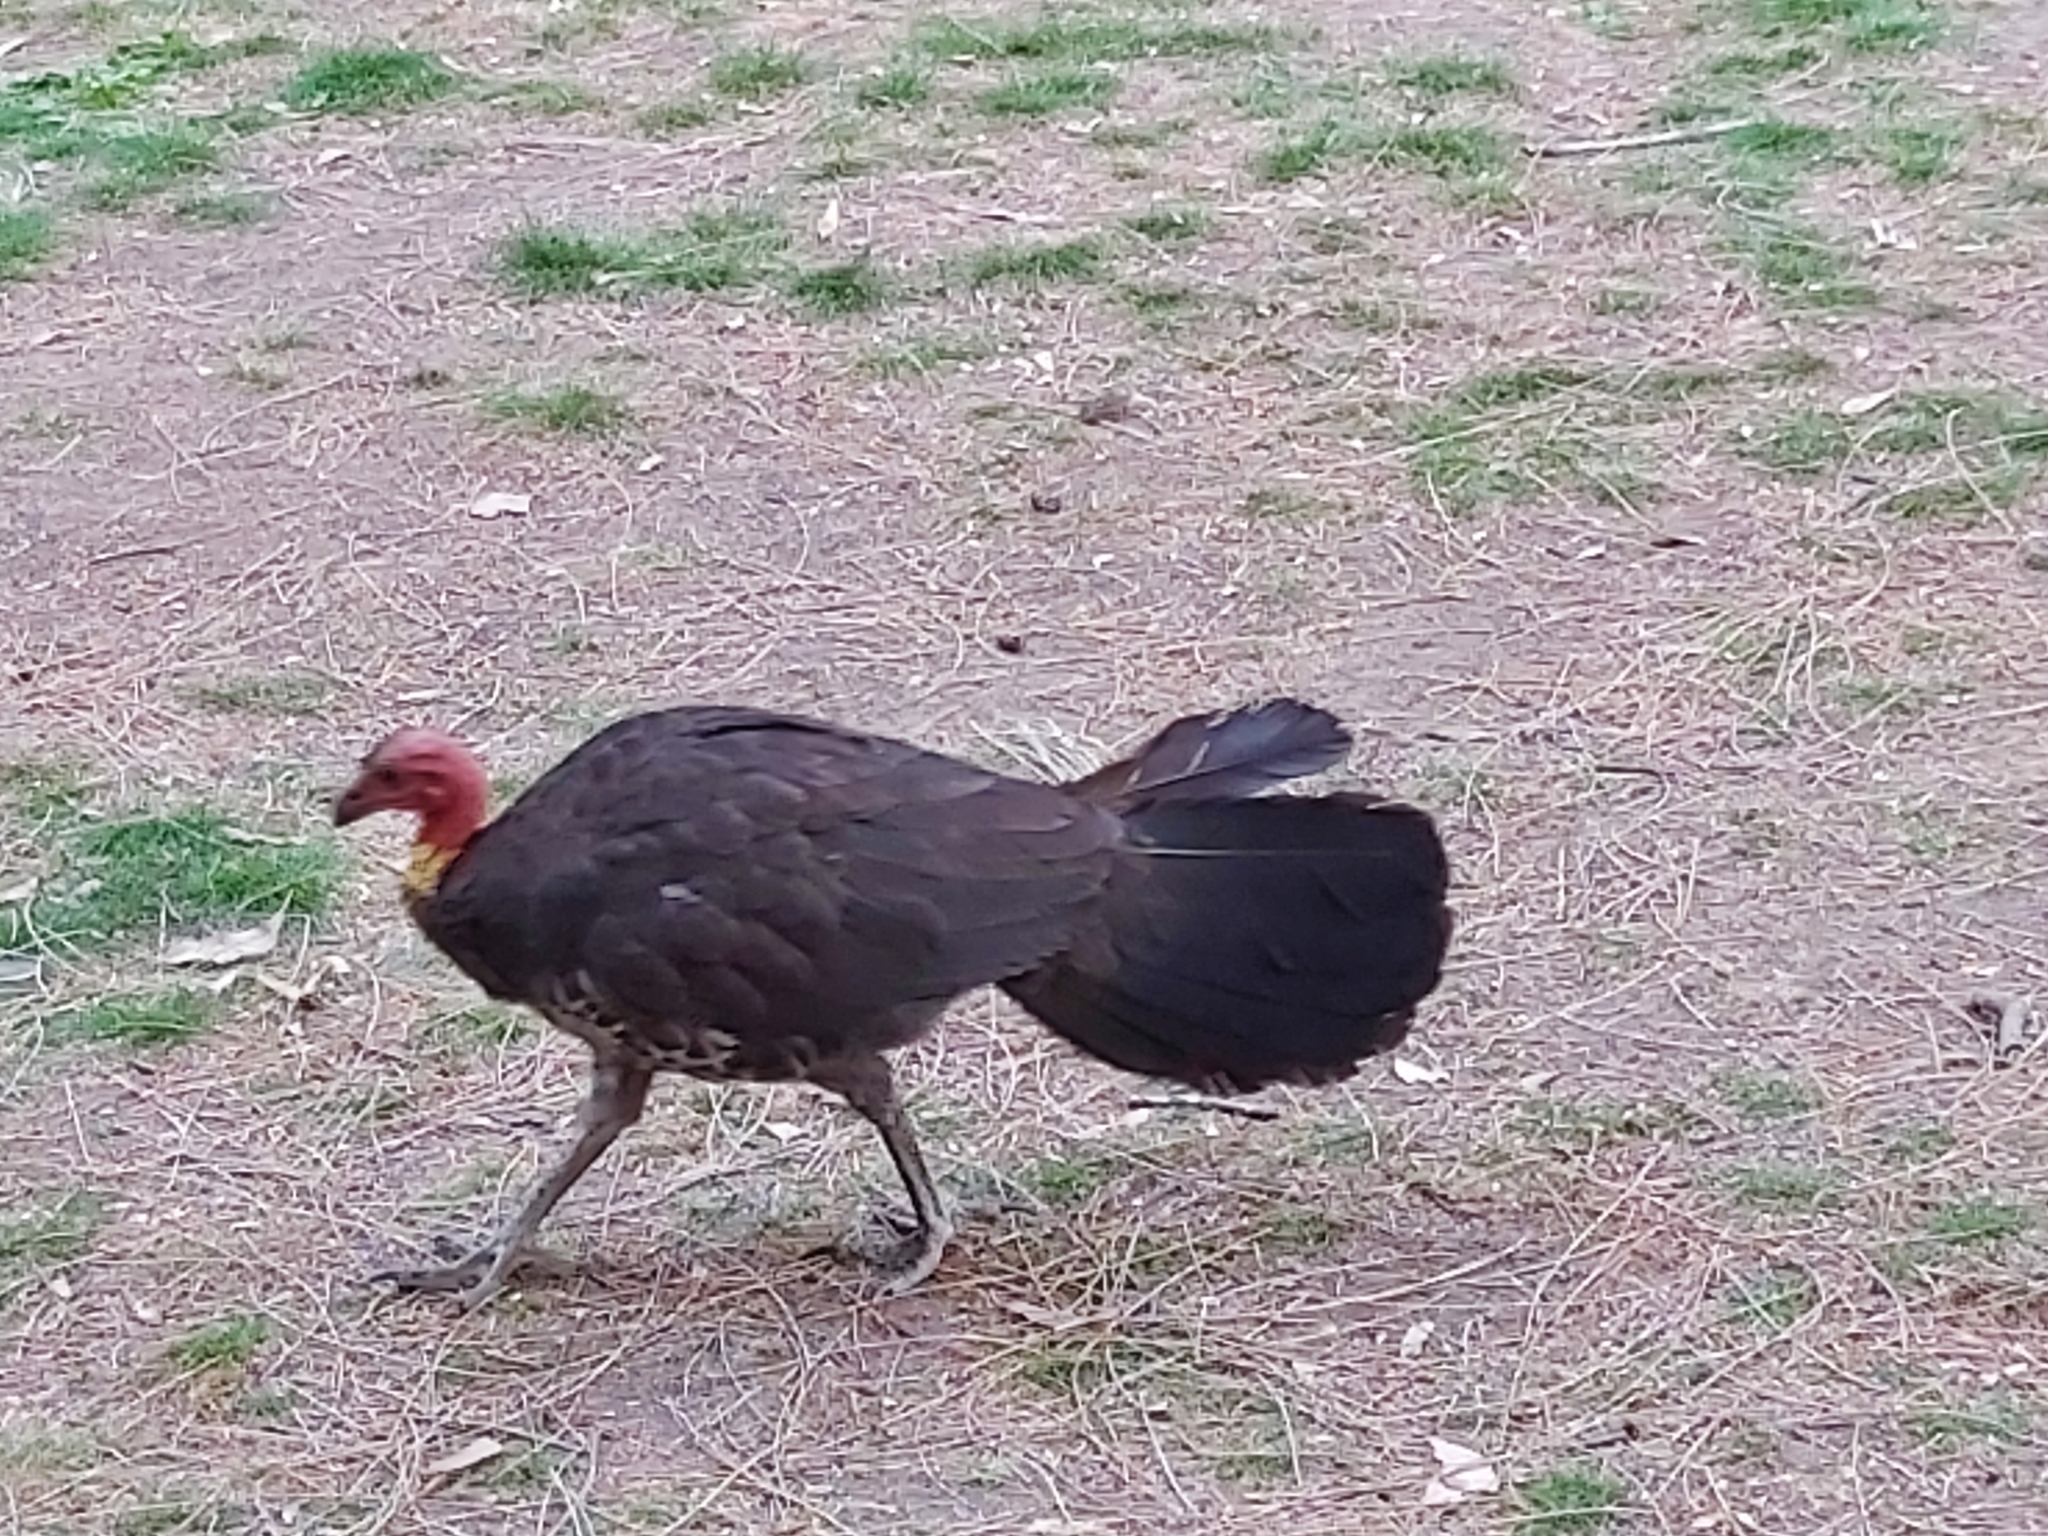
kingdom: Animalia
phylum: Chordata
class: Aves
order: Galliformes
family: Megapodiidae
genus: Alectura
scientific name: Alectura lathami
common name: Australian brushturkey
